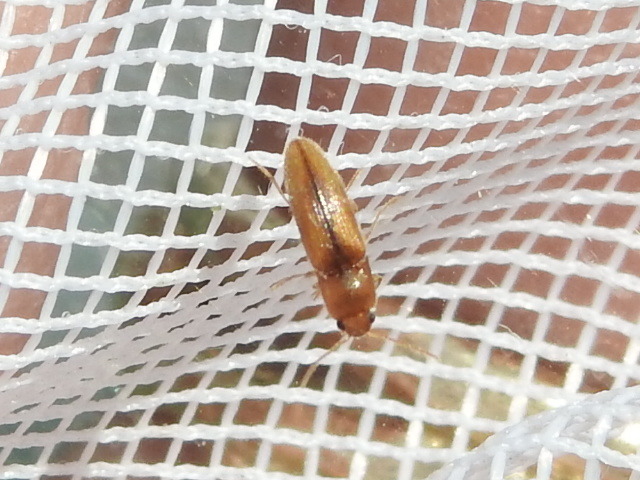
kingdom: Animalia
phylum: Arthropoda
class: Insecta
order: Coleoptera
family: Elateridae
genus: Glyphonyx
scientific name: Glyphonyx
